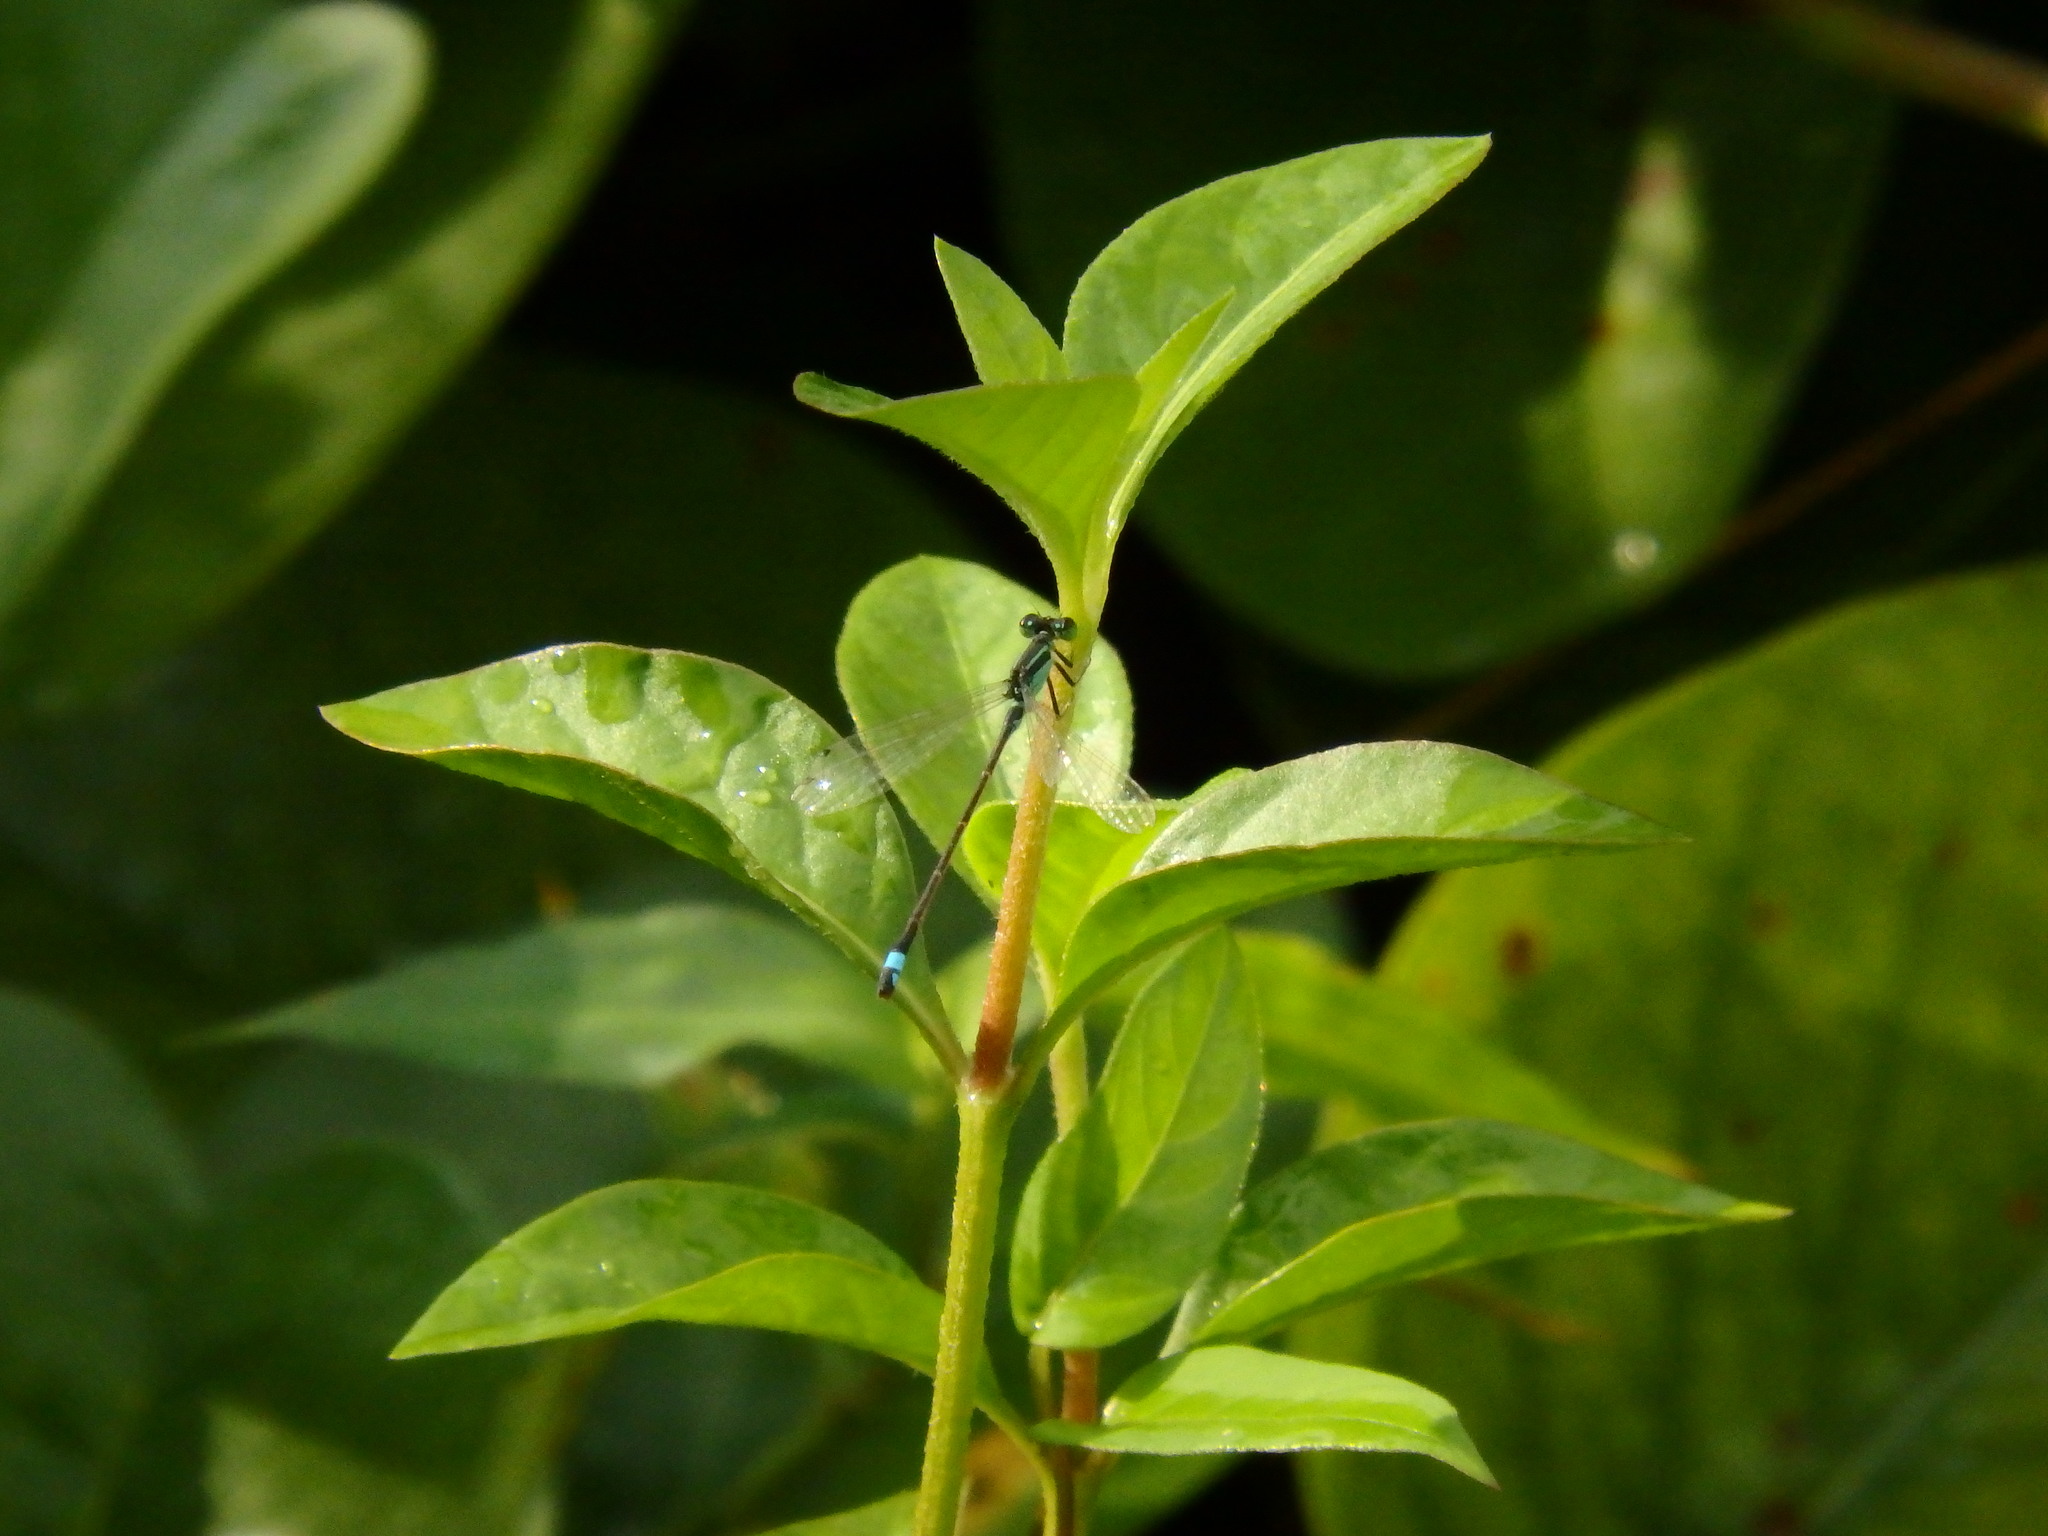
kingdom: Animalia
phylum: Arthropoda
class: Insecta
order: Odonata
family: Coenagrionidae
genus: Ischnura
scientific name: Ischnura senegalensis
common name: Tropical bluetail
